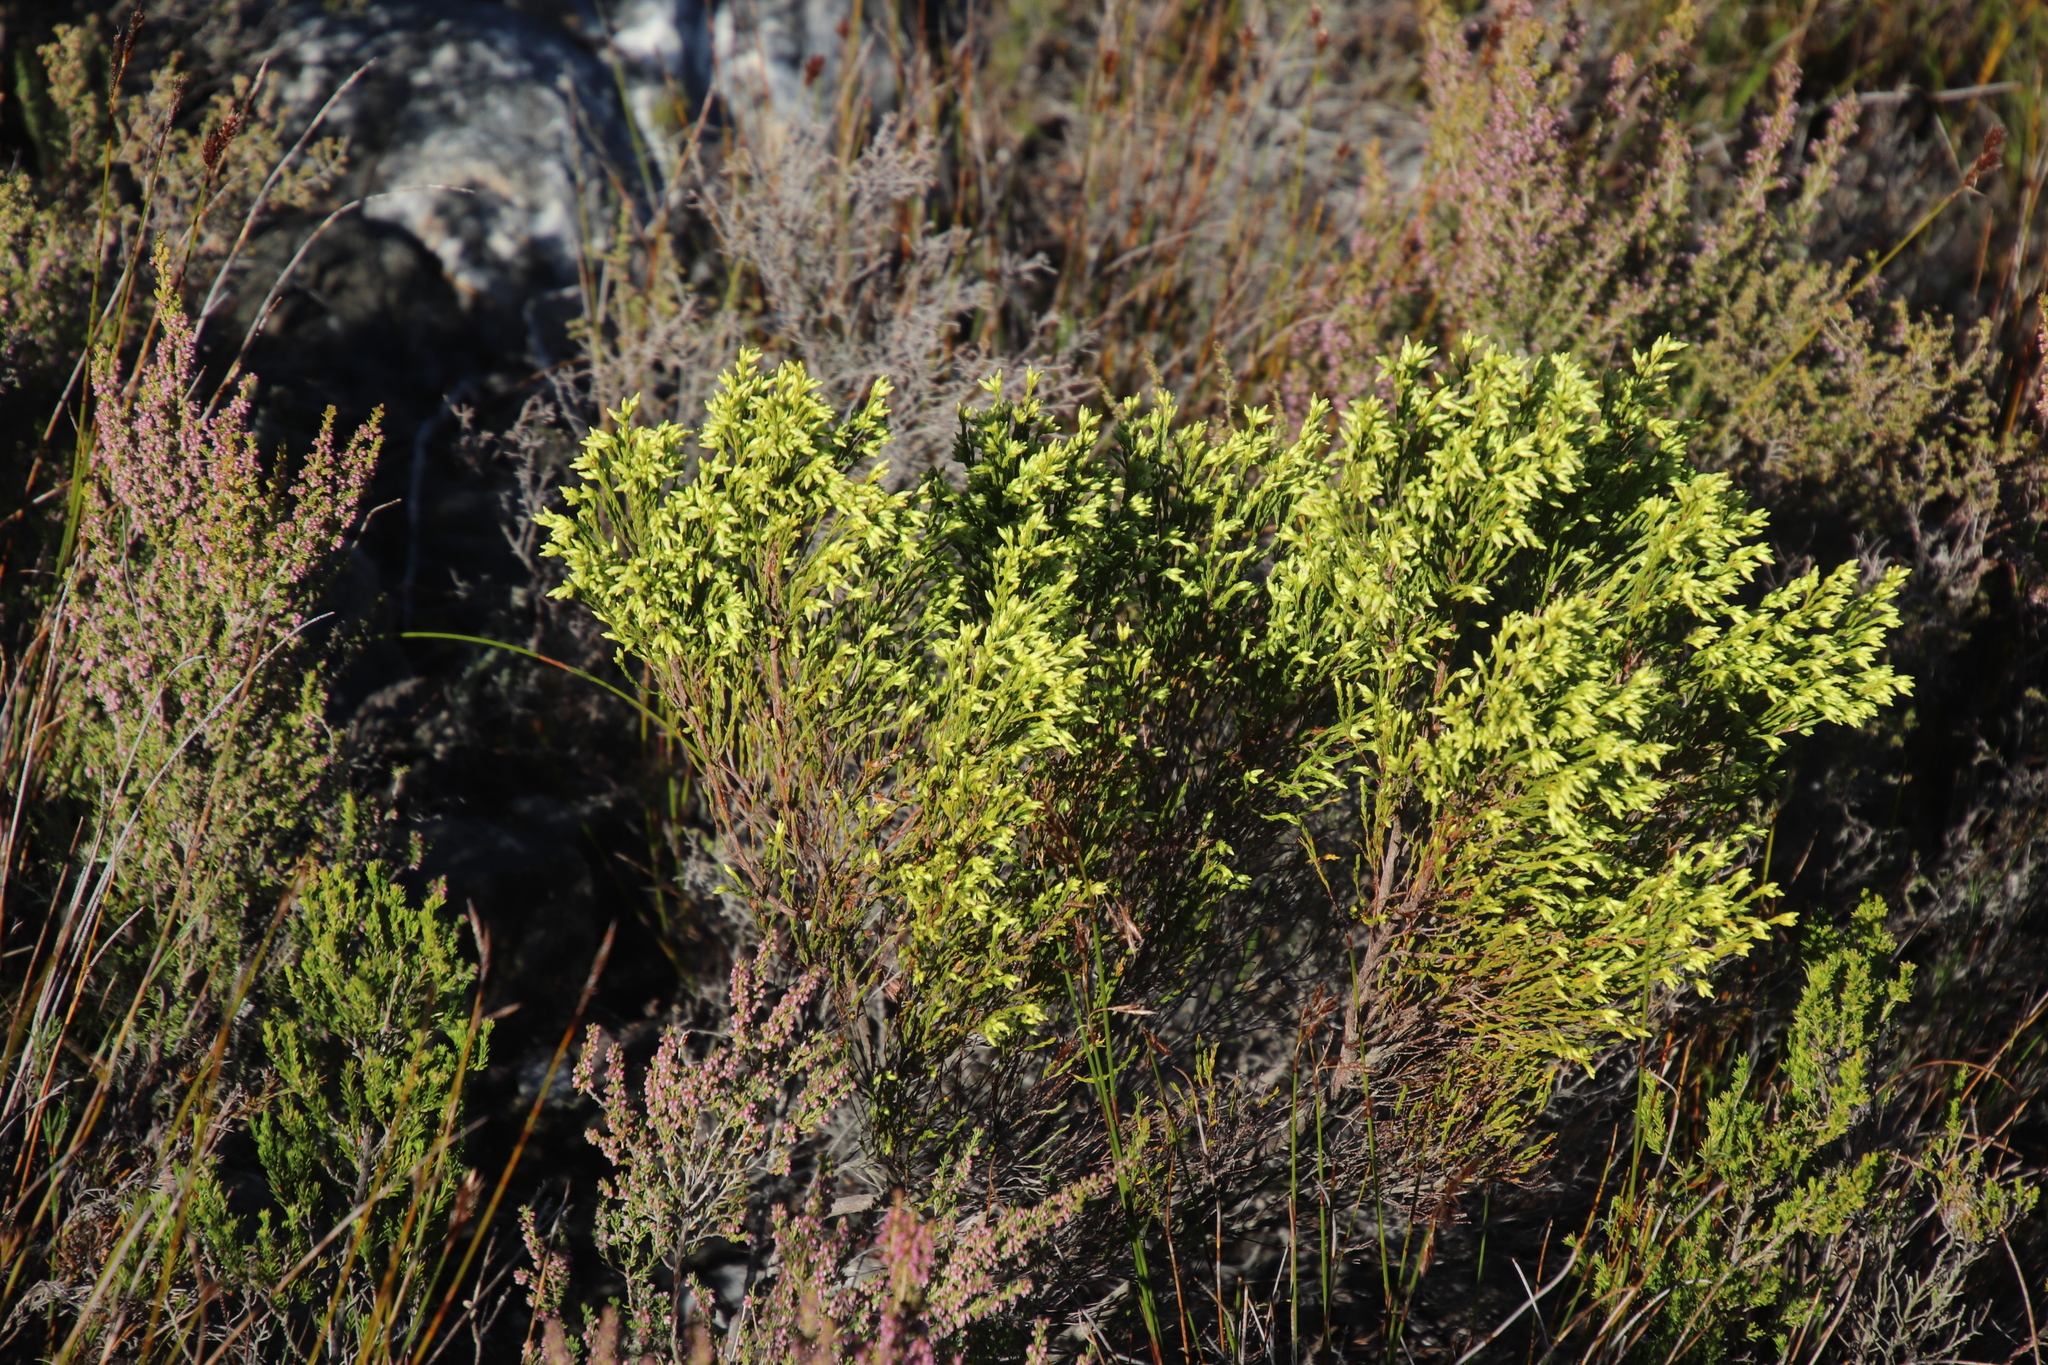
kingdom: Plantae
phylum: Tracheophyta
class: Magnoliopsida
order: Ericales
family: Ericaceae
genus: Erica
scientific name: Erica lutea
